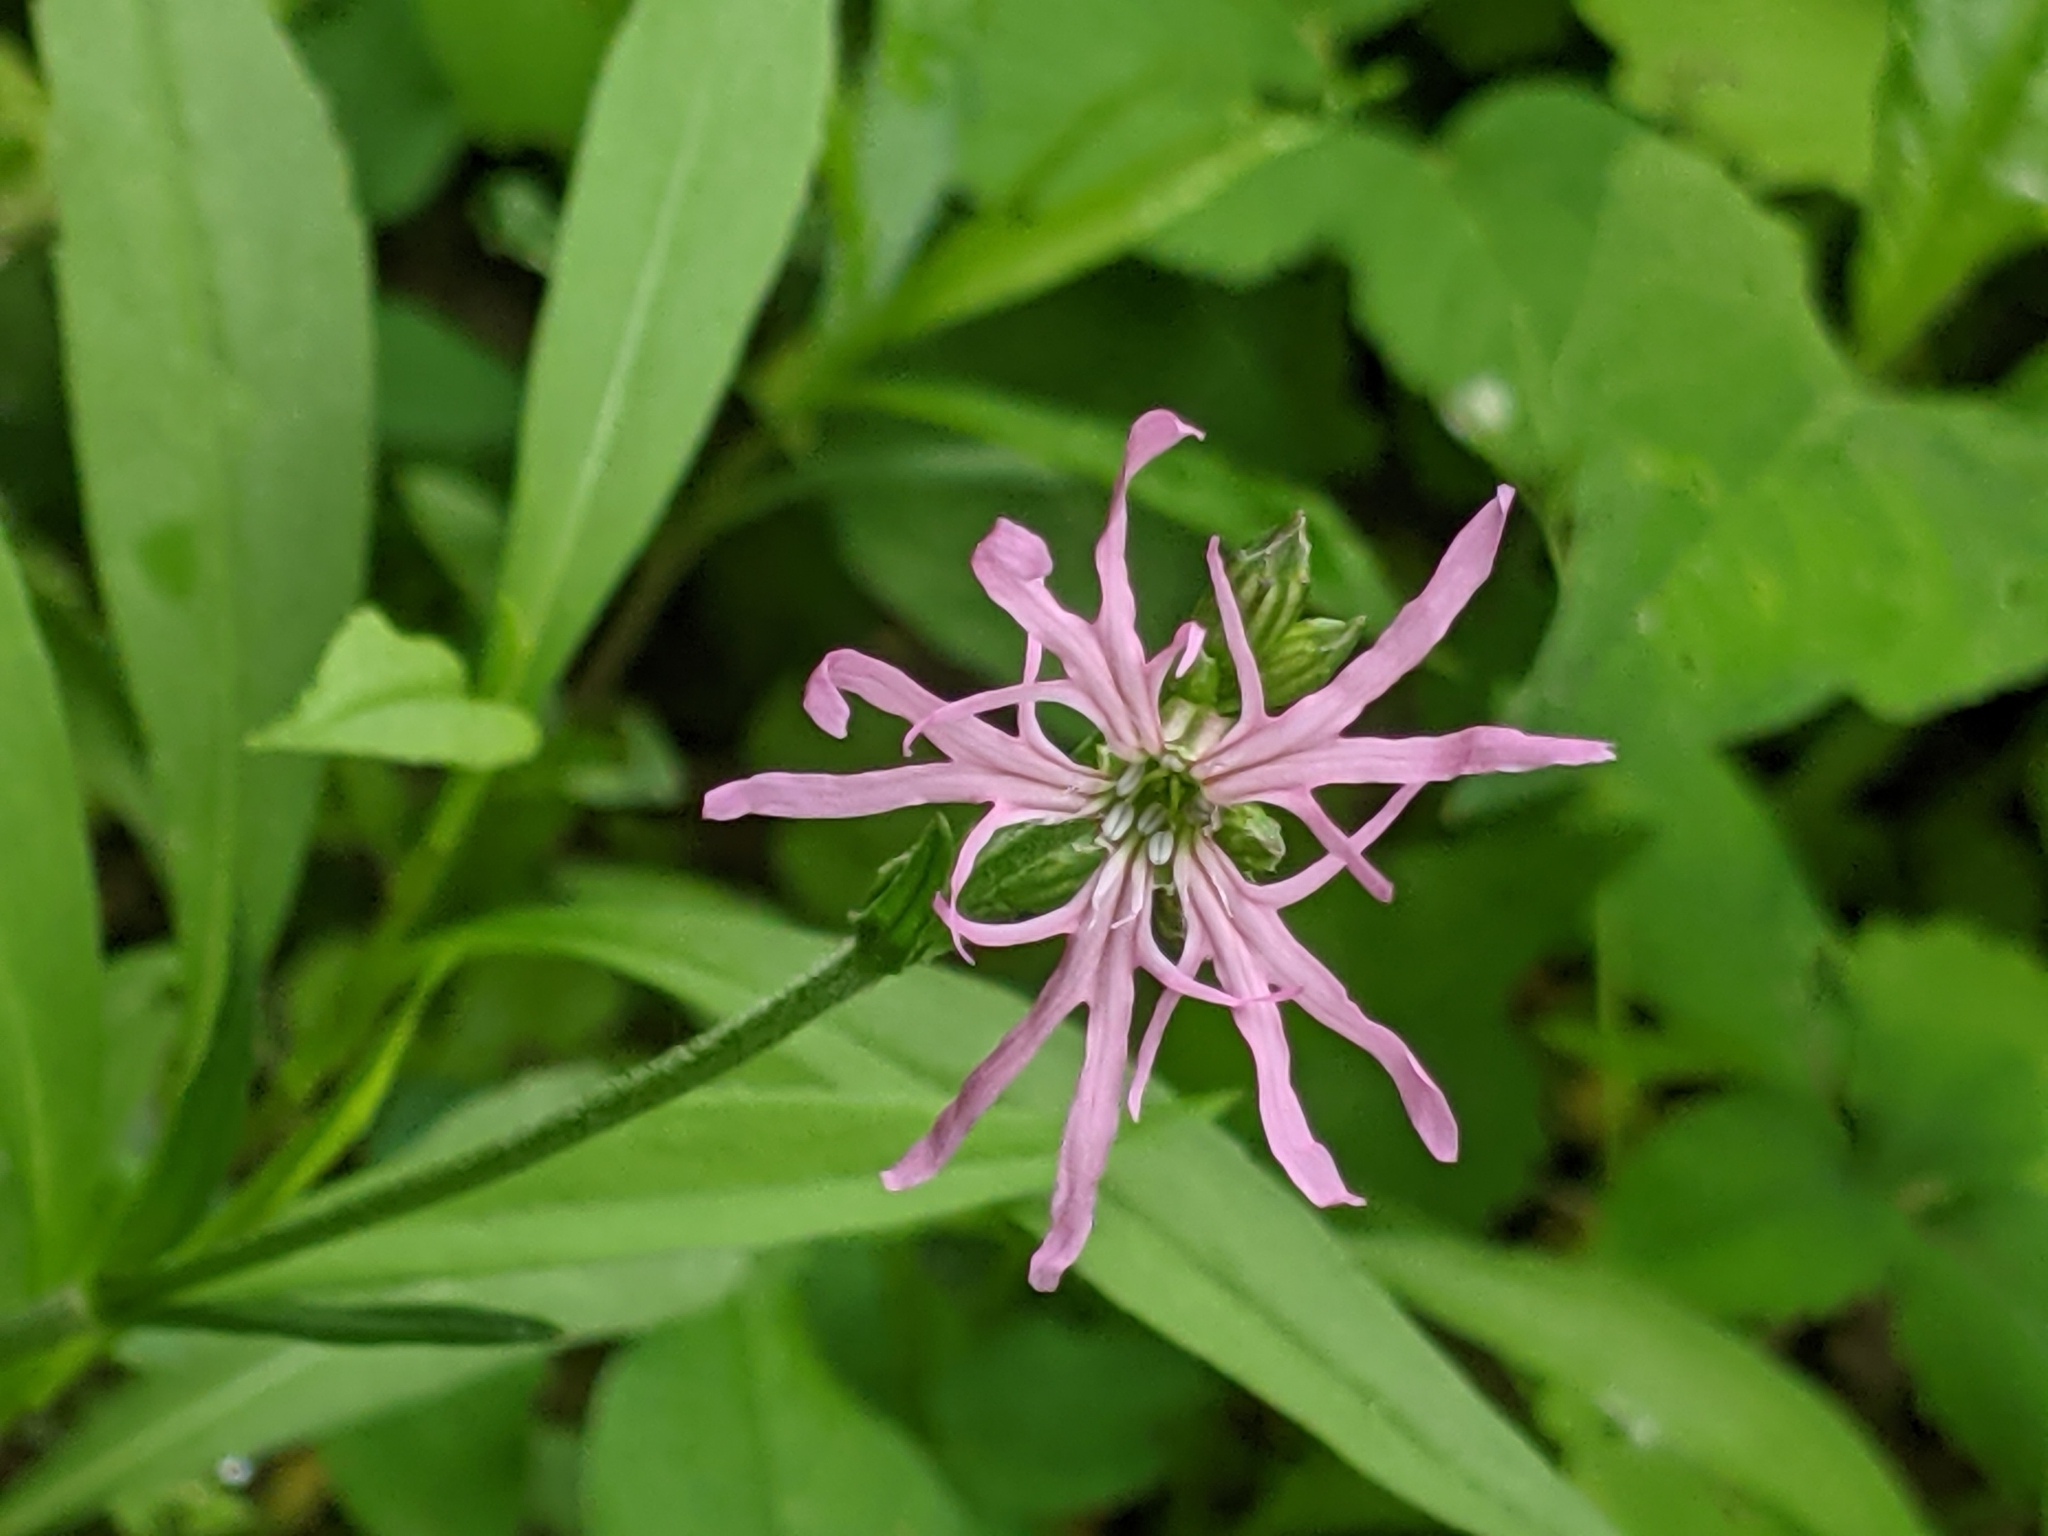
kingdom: Plantae
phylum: Tracheophyta
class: Magnoliopsida
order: Caryophyllales
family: Caryophyllaceae
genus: Silene
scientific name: Silene flos-cuculi
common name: Ragged-robin
